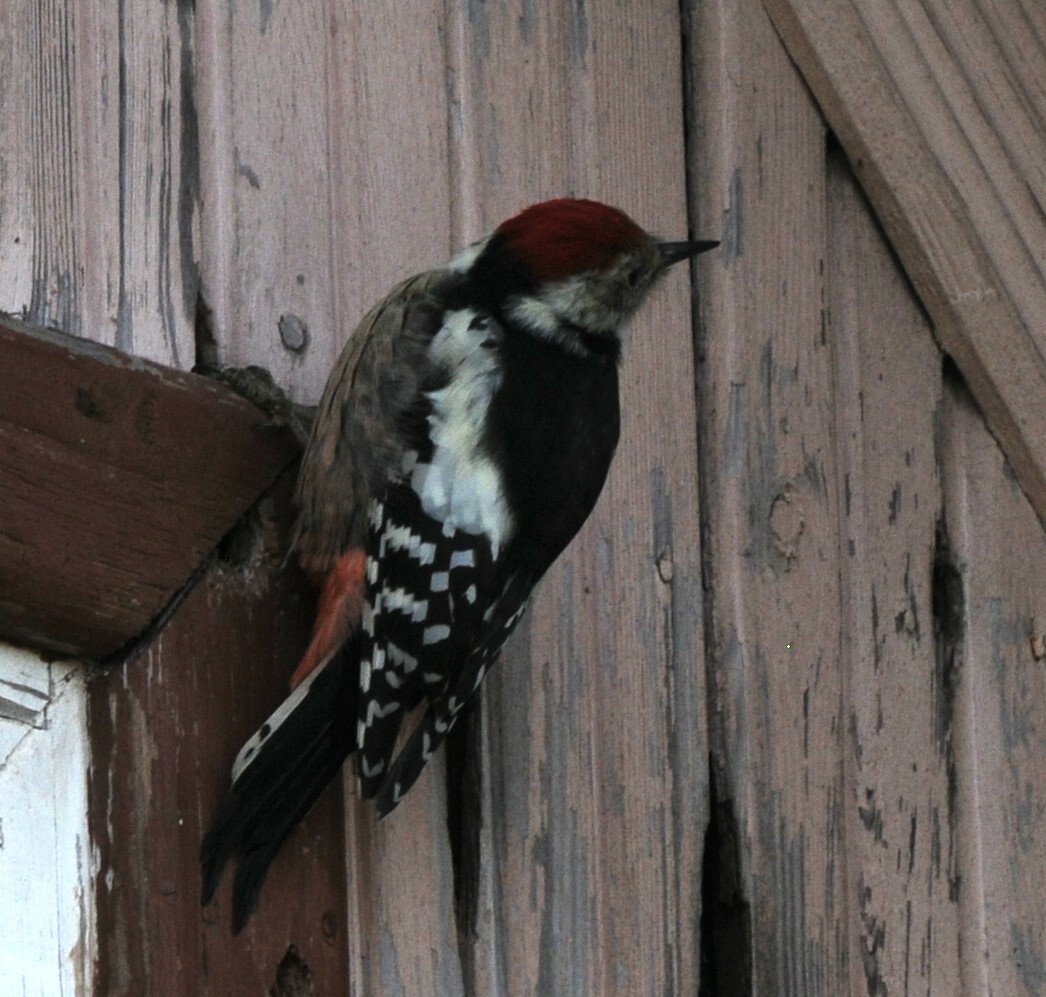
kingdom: Animalia
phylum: Chordata
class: Aves
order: Piciformes
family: Picidae
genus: Dendrocoptes
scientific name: Dendrocoptes medius
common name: Middle spotted woodpecker
